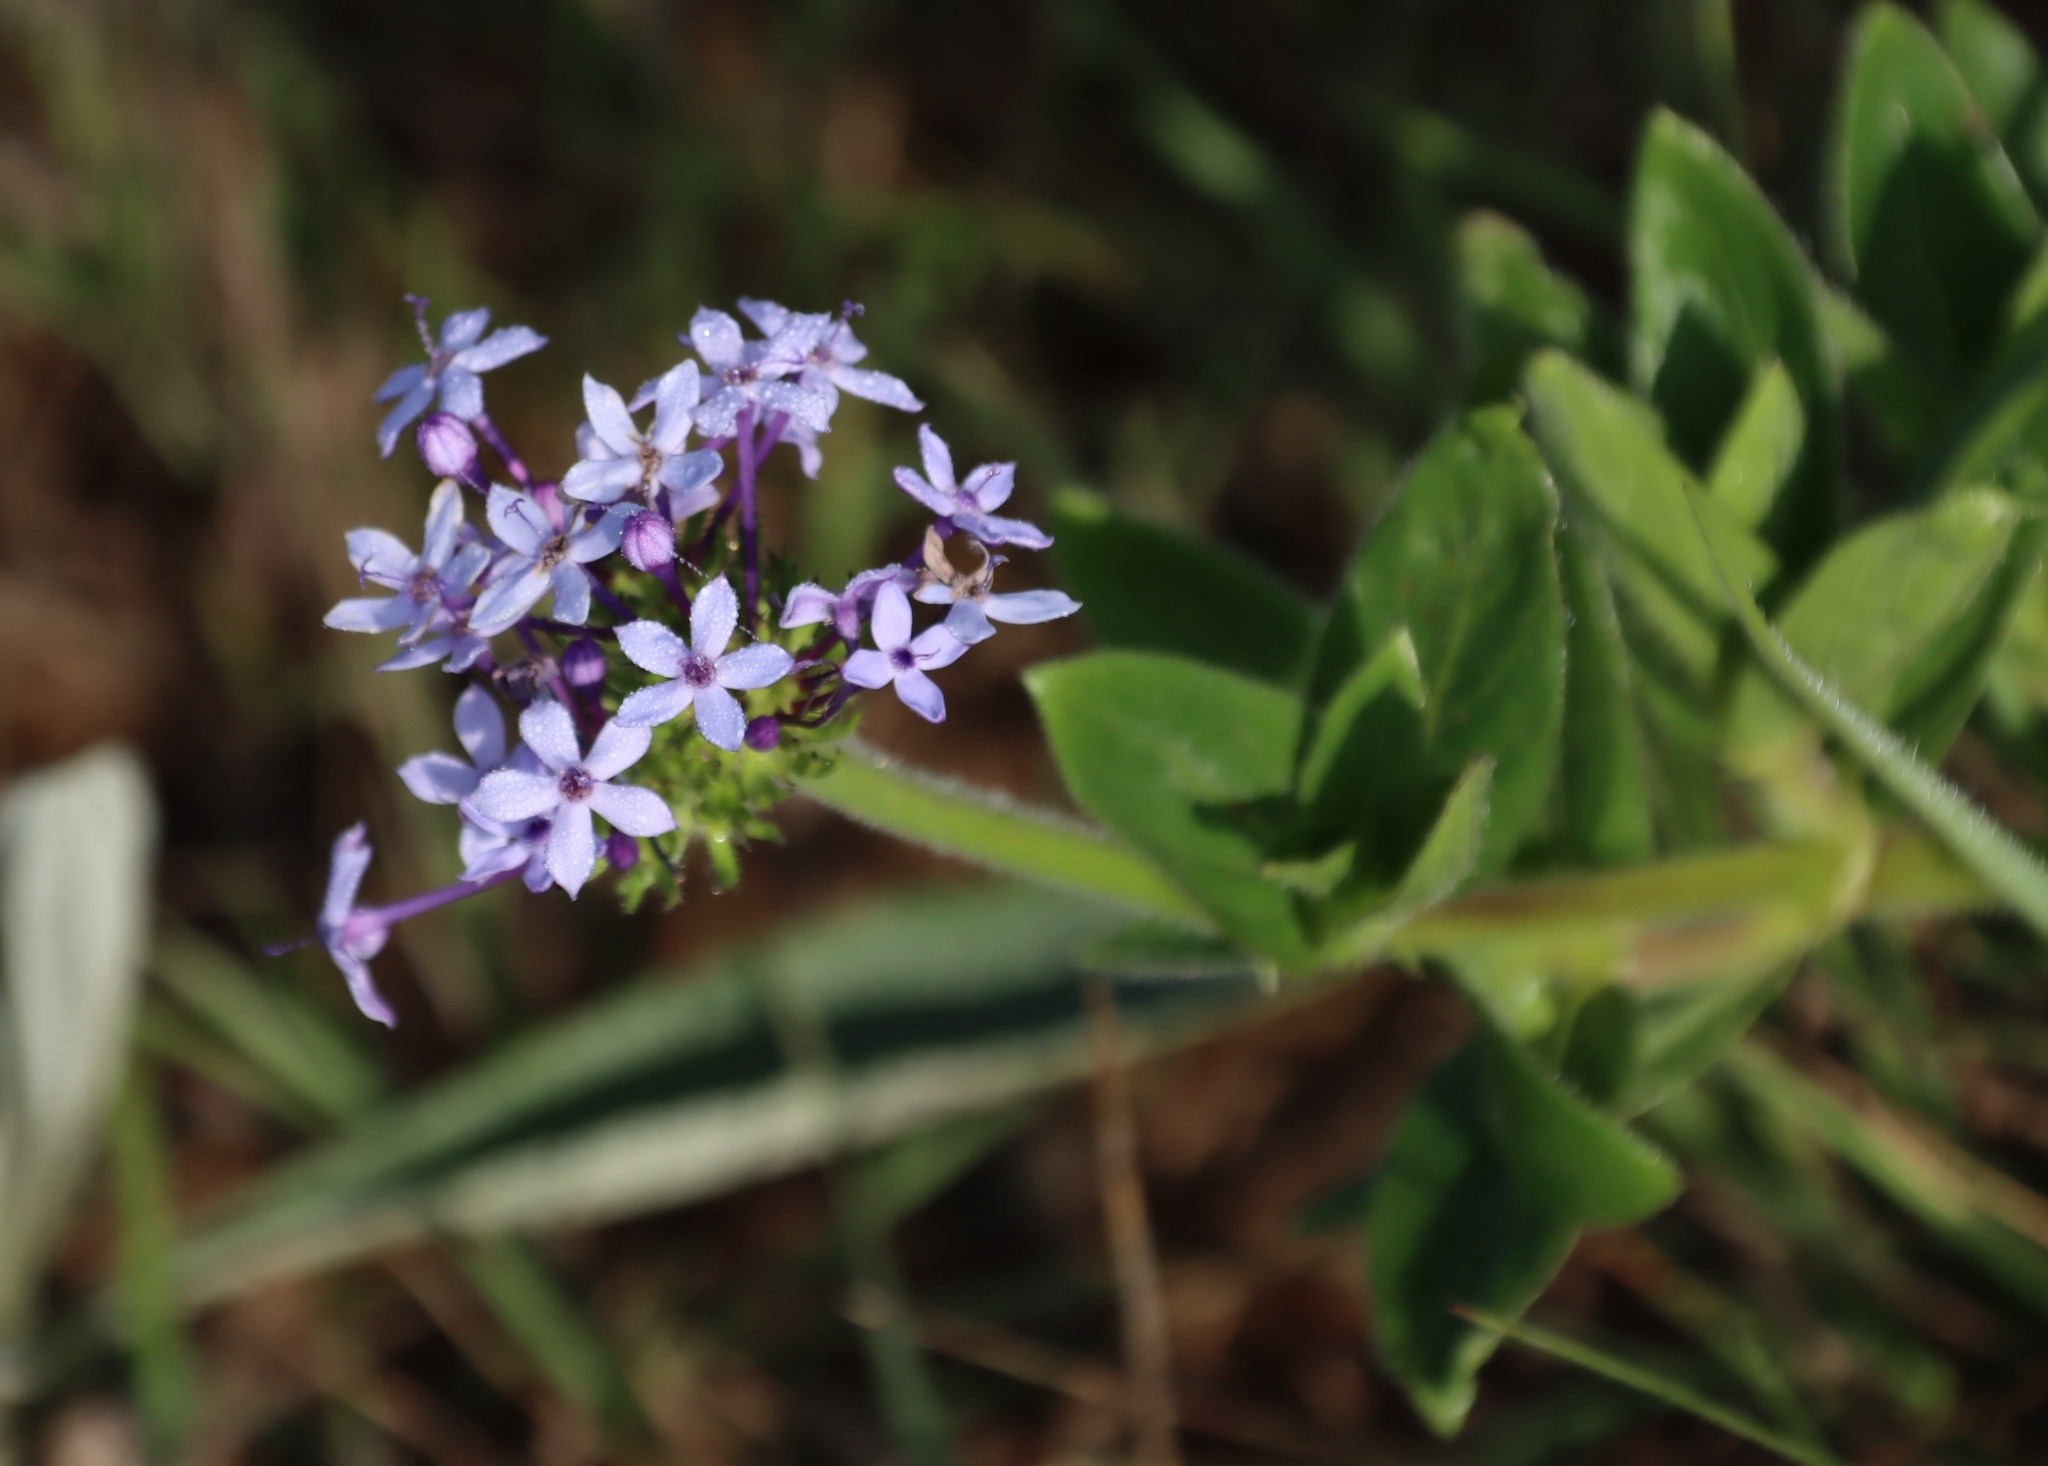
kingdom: Plantae
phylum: Tracheophyta
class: Magnoliopsida
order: Gentianales
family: Rubiaceae
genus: Pentanisia
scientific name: Pentanisia prunelloides
